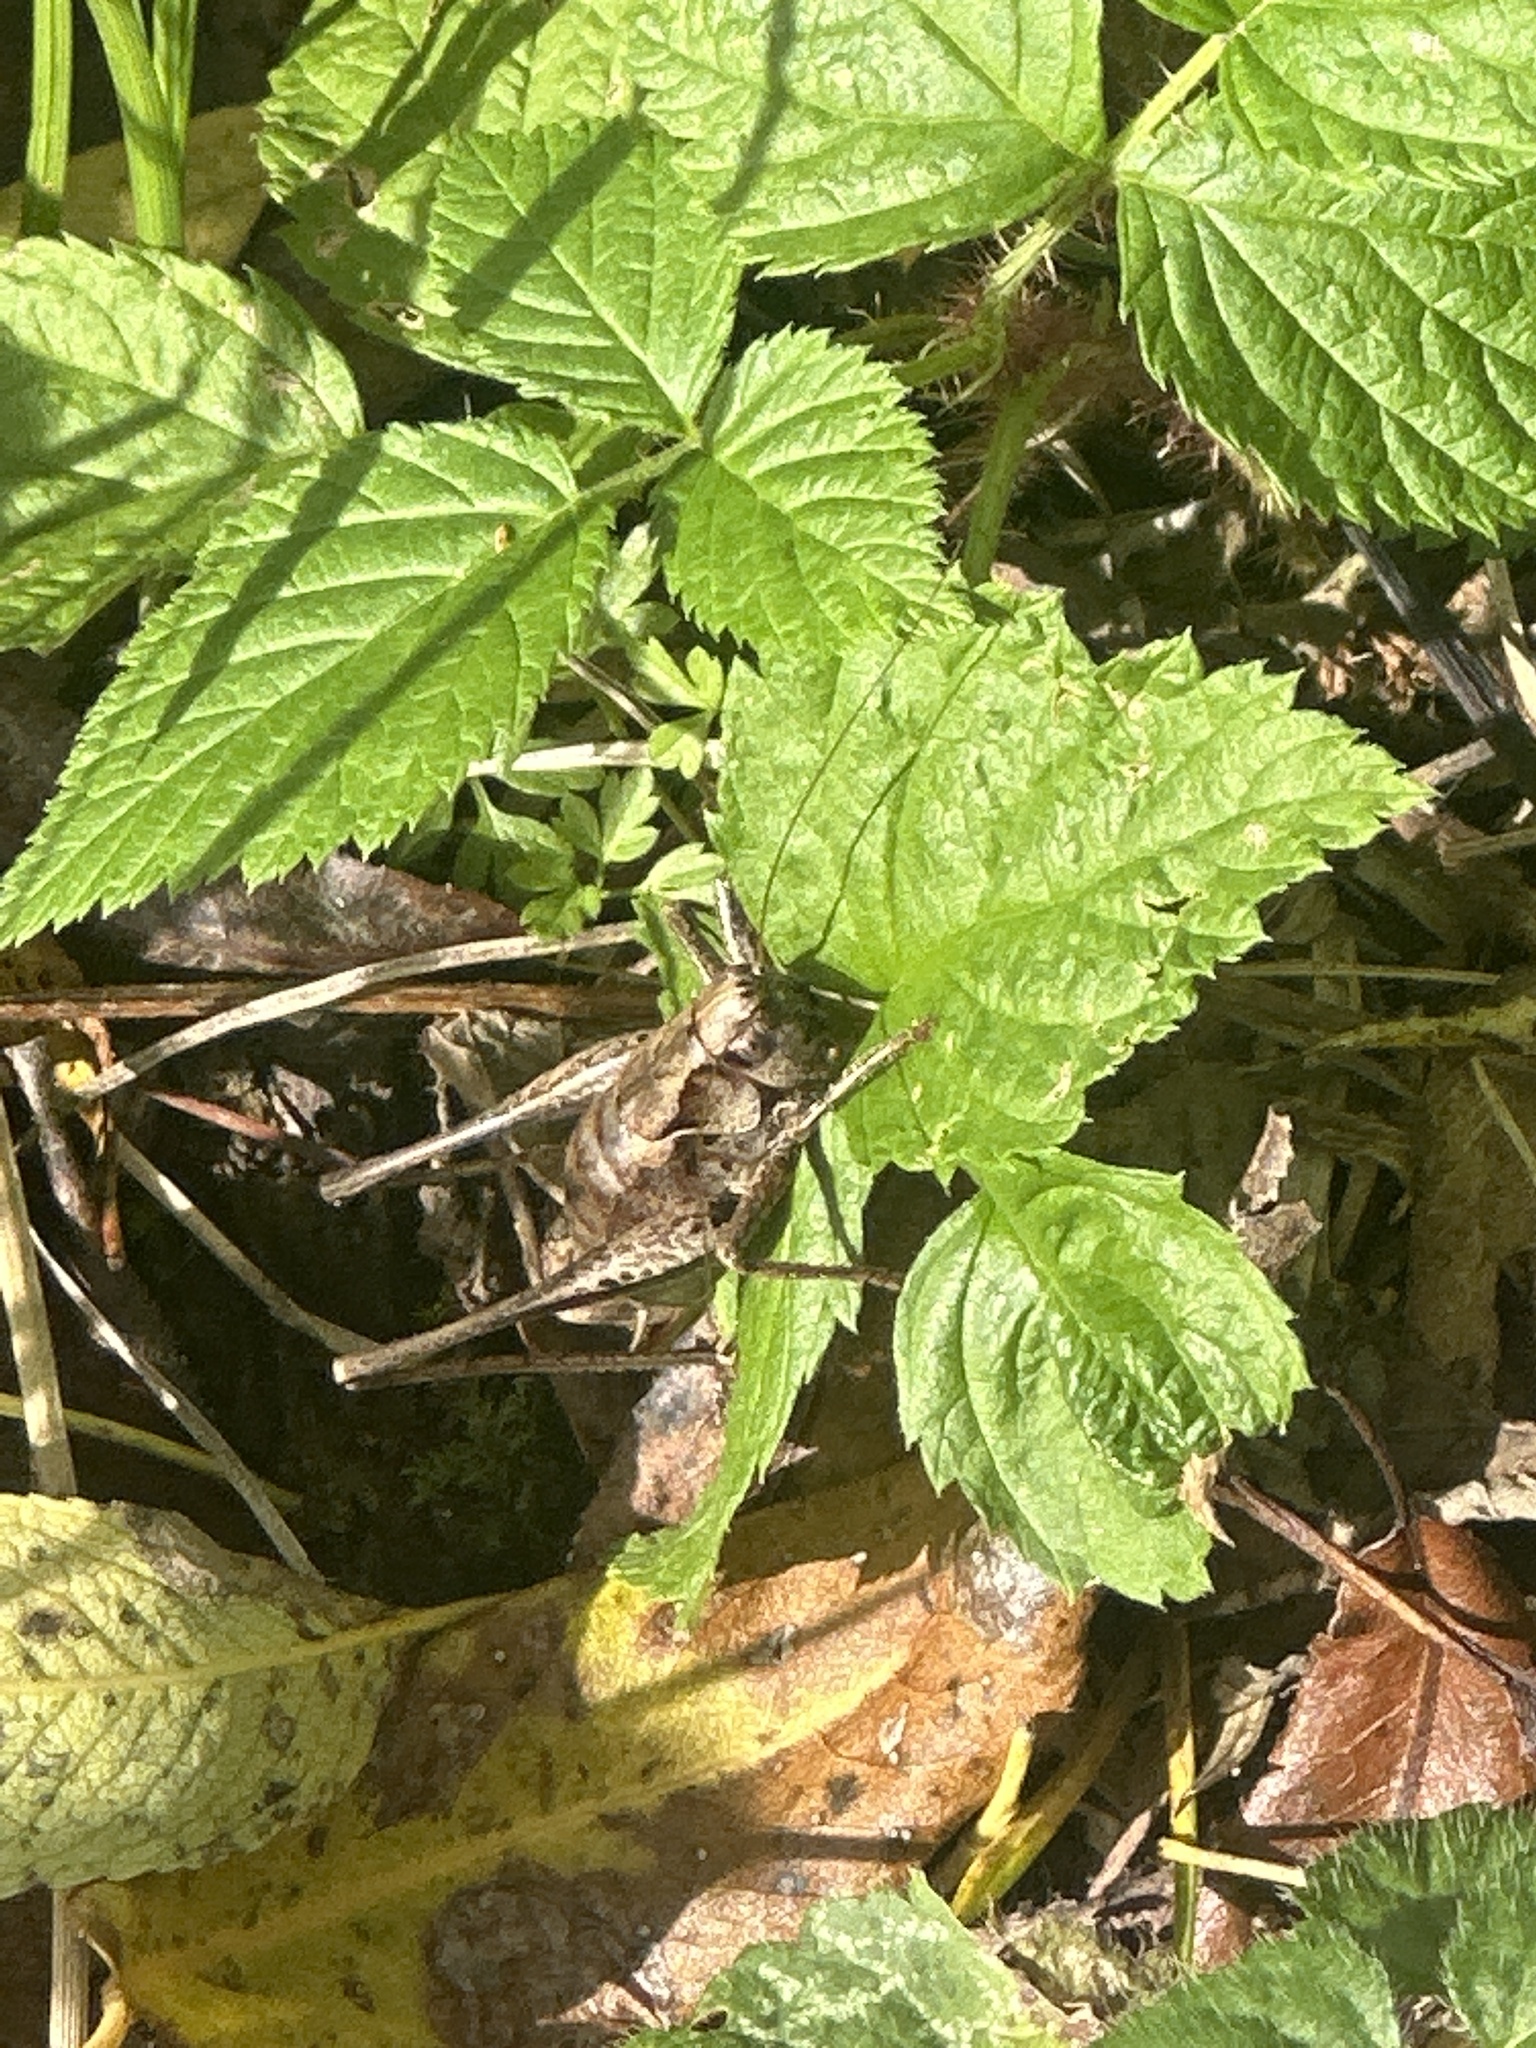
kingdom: Animalia
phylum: Arthropoda
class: Insecta
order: Orthoptera
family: Tettigoniidae
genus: Pholidoptera
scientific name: Pholidoptera griseoaptera
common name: Dark bush-cricket
